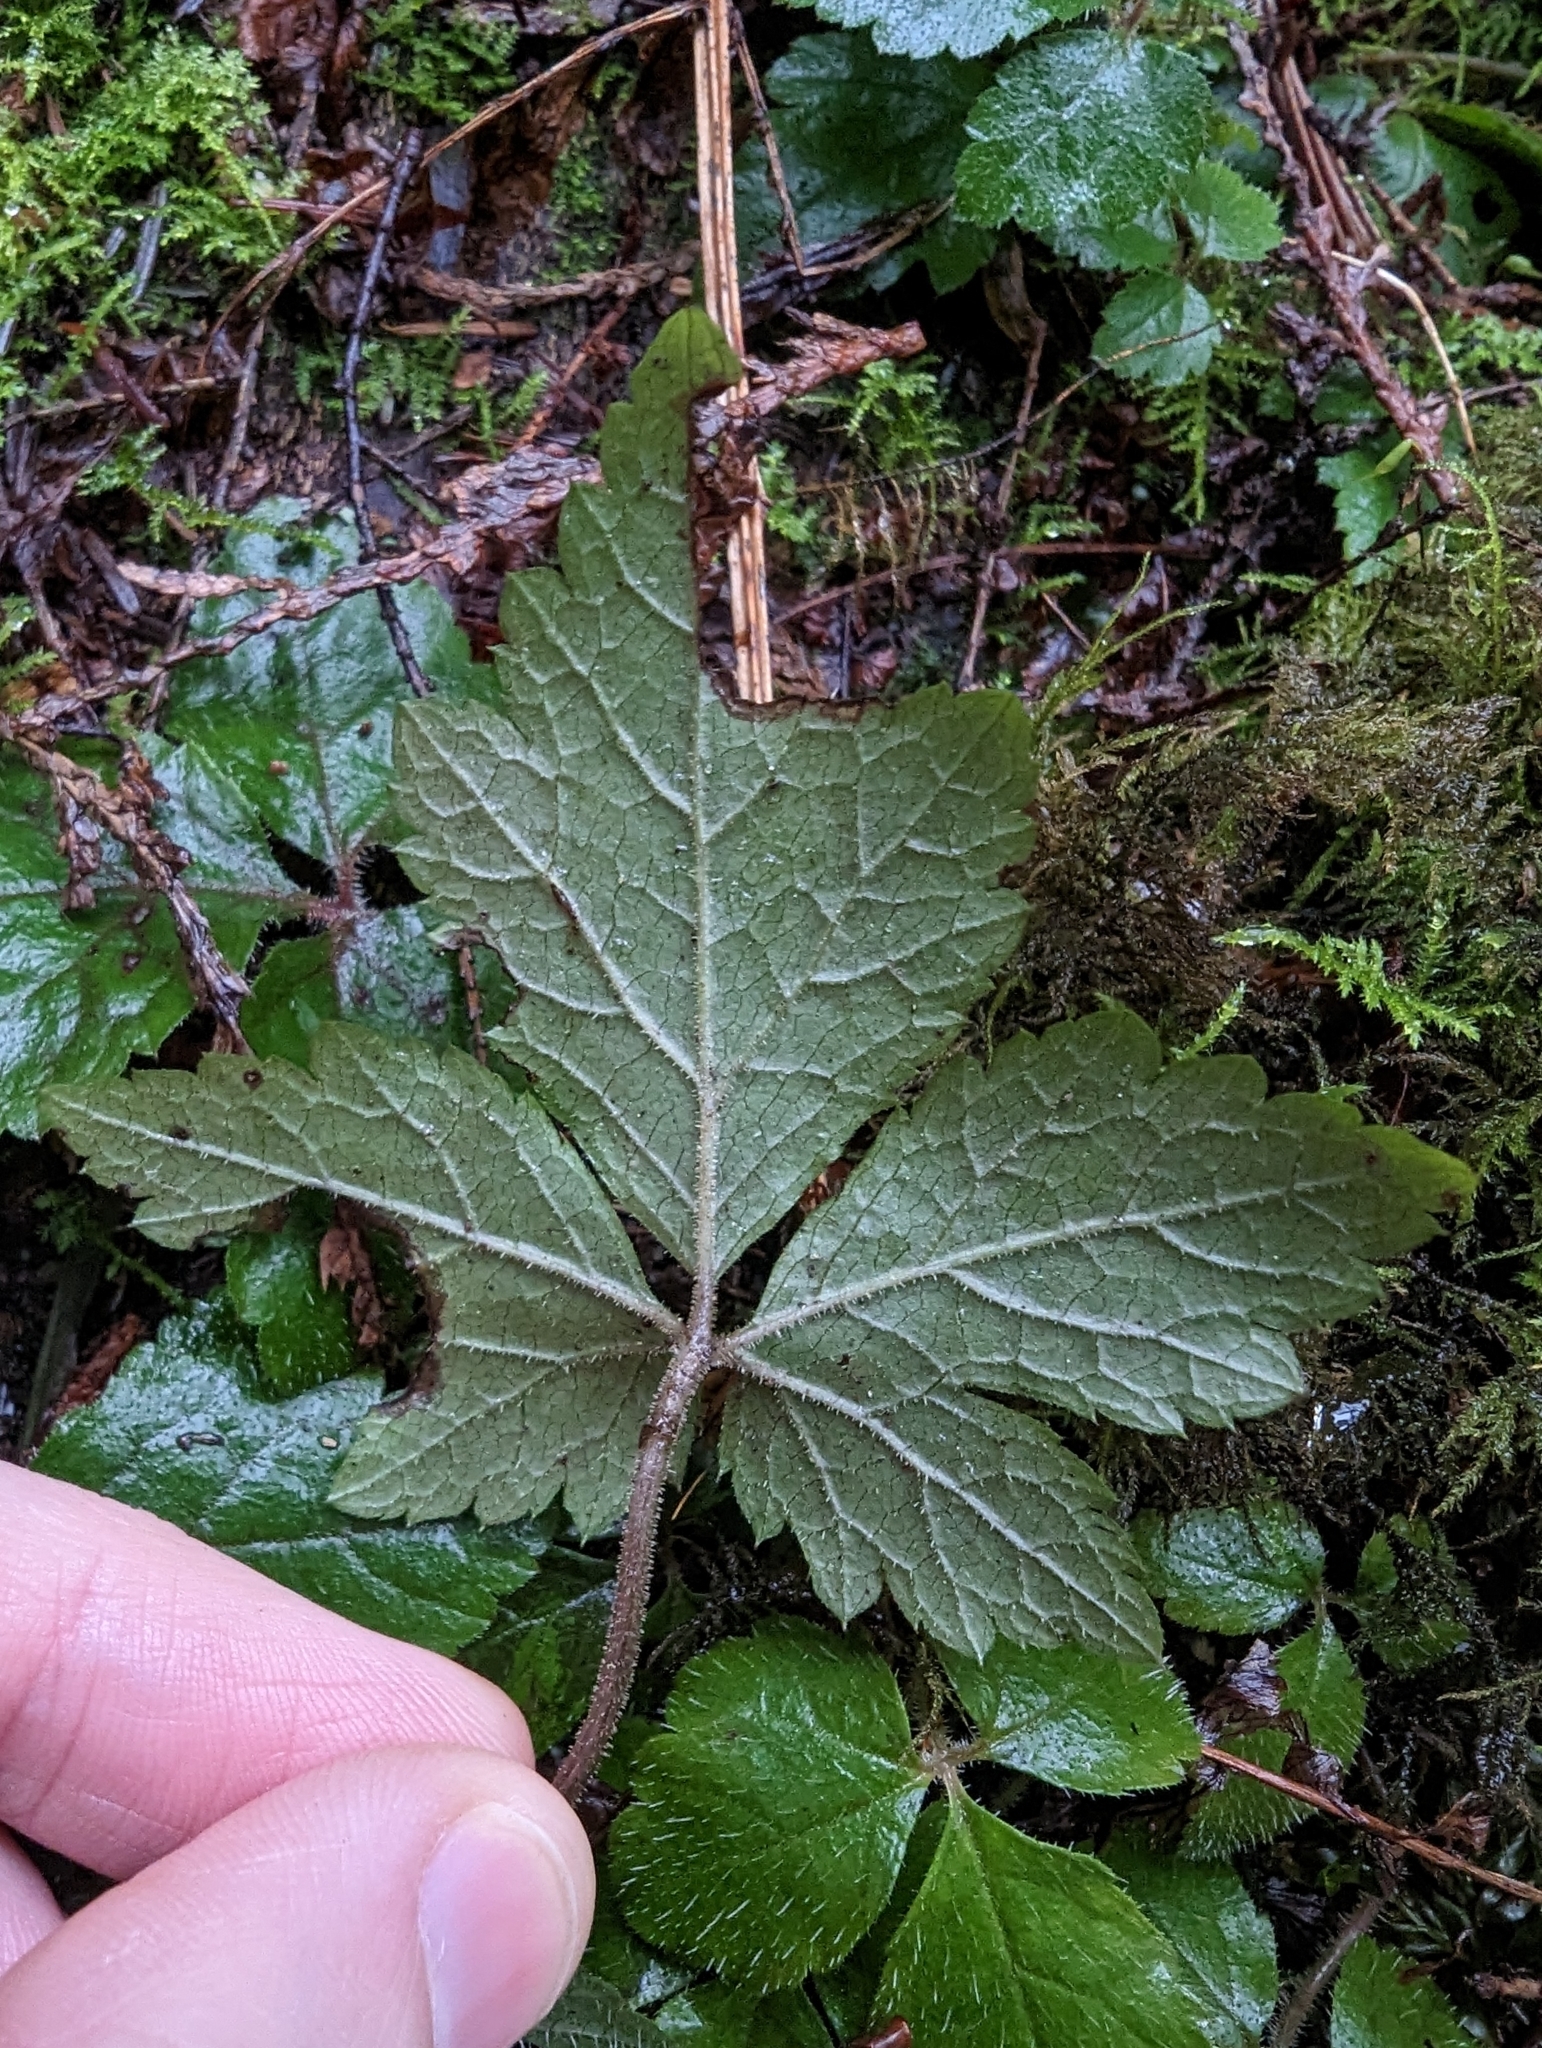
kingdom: Plantae
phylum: Tracheophyta
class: Magnoliopsida
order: Saxifragales
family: Saxifragaceae
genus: Tiarella
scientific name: Tiarella trifoliata
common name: Sugar-scoop
